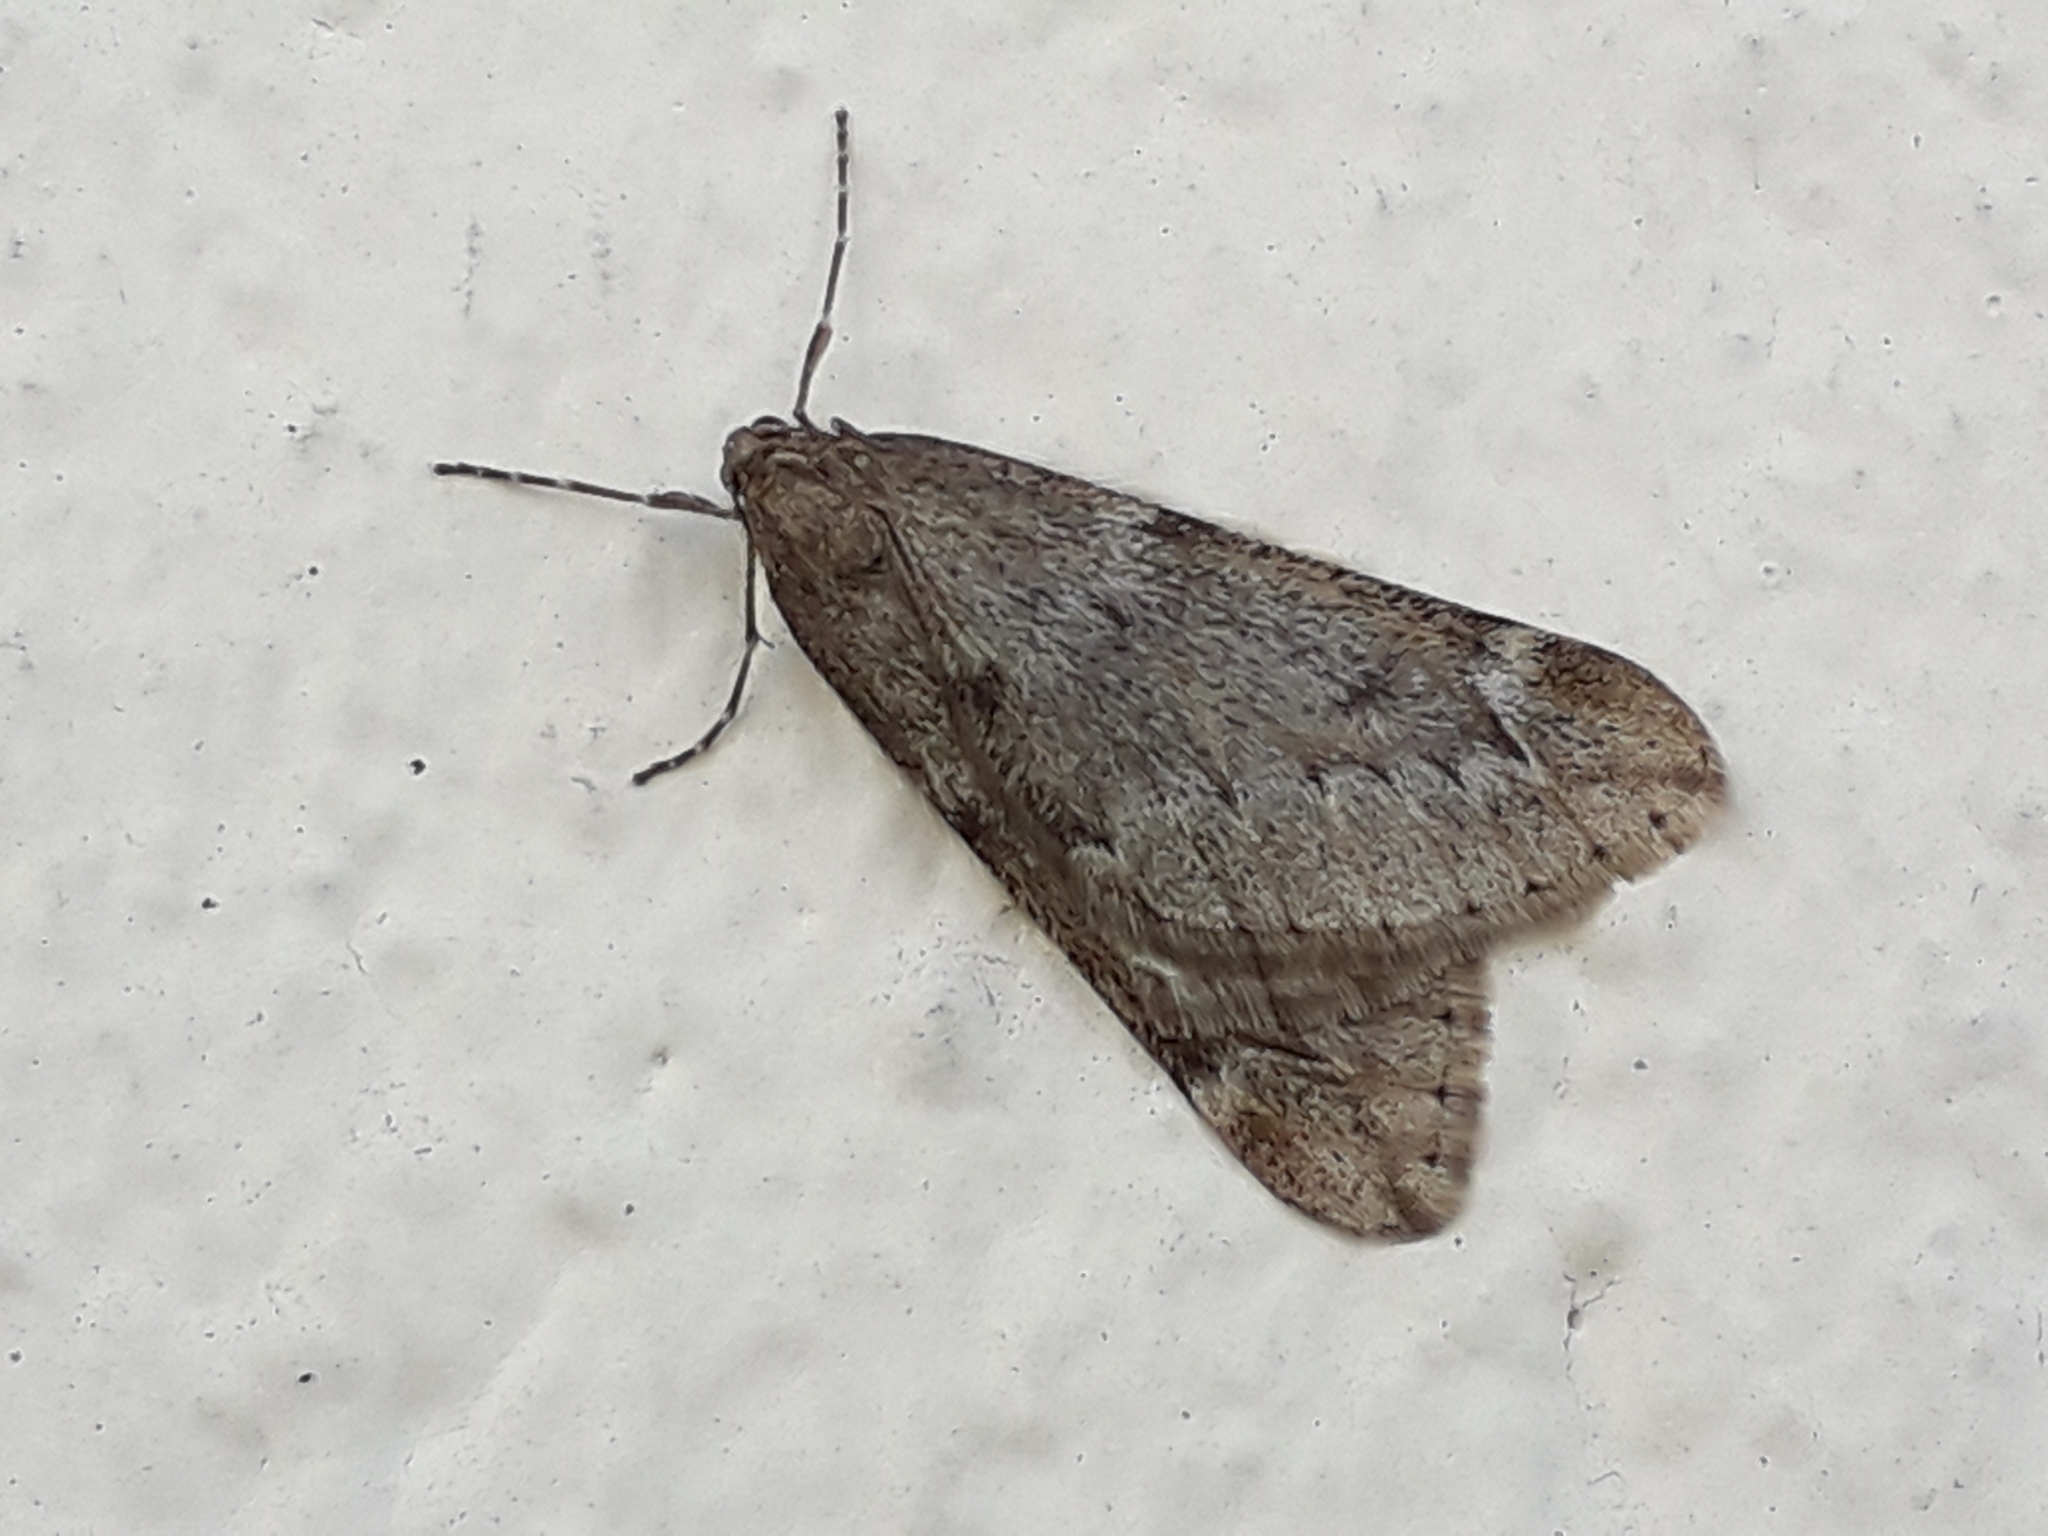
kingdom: Animalia
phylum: Arthropoda
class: Insecta
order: Lepidoptera
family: Geometridae
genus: Alsophila
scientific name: Alsophila aescularia
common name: March moth
